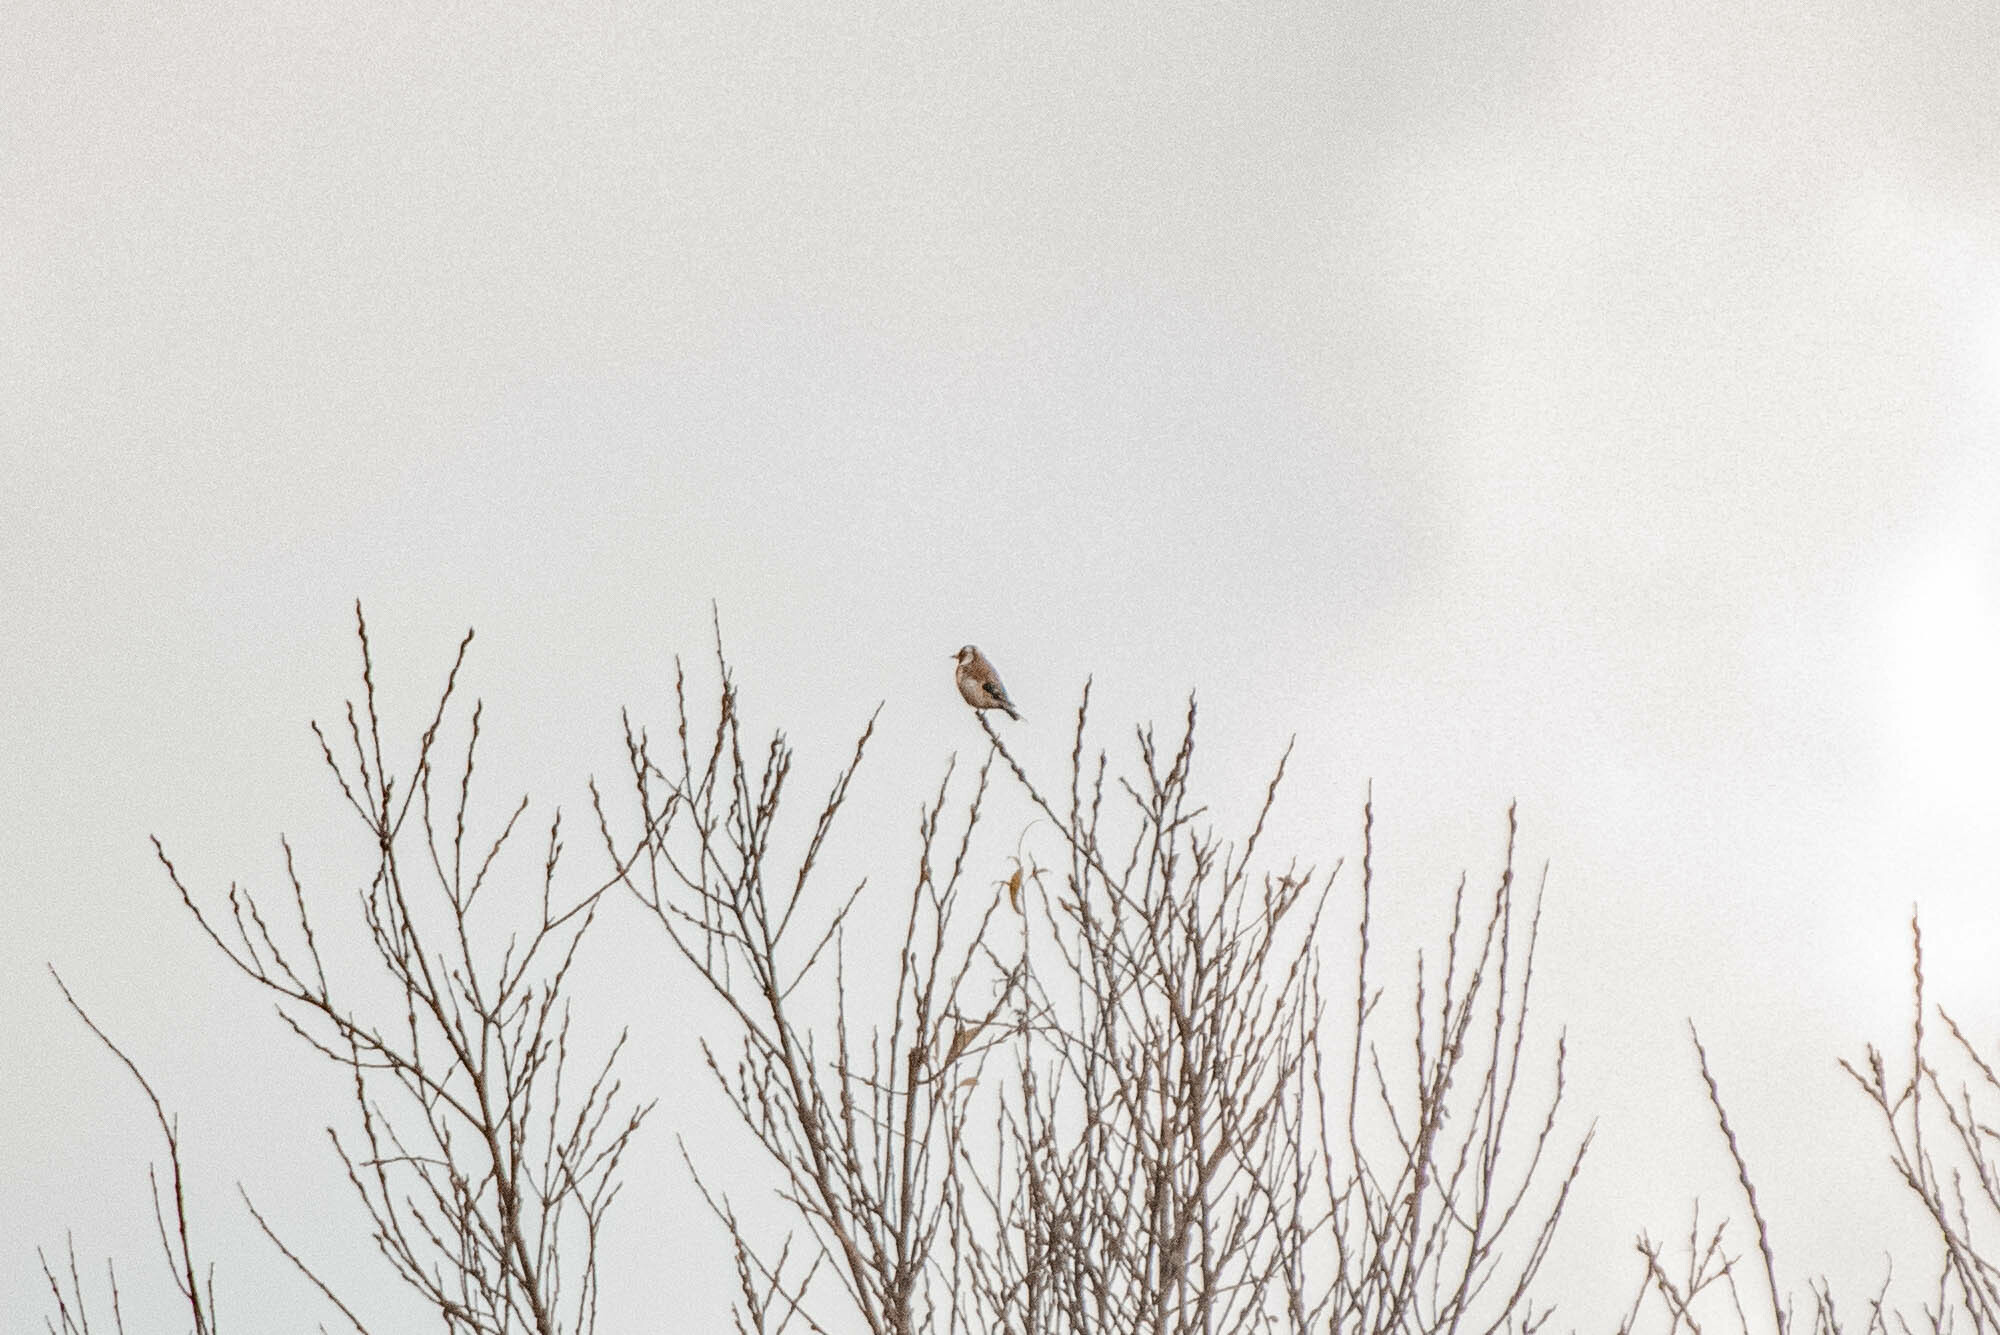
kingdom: Animalia
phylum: Chordata
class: Aves
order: Passeriformes
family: Fringillidae
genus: Carduelis
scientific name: Carduelis carduelis
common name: European goldfinch
